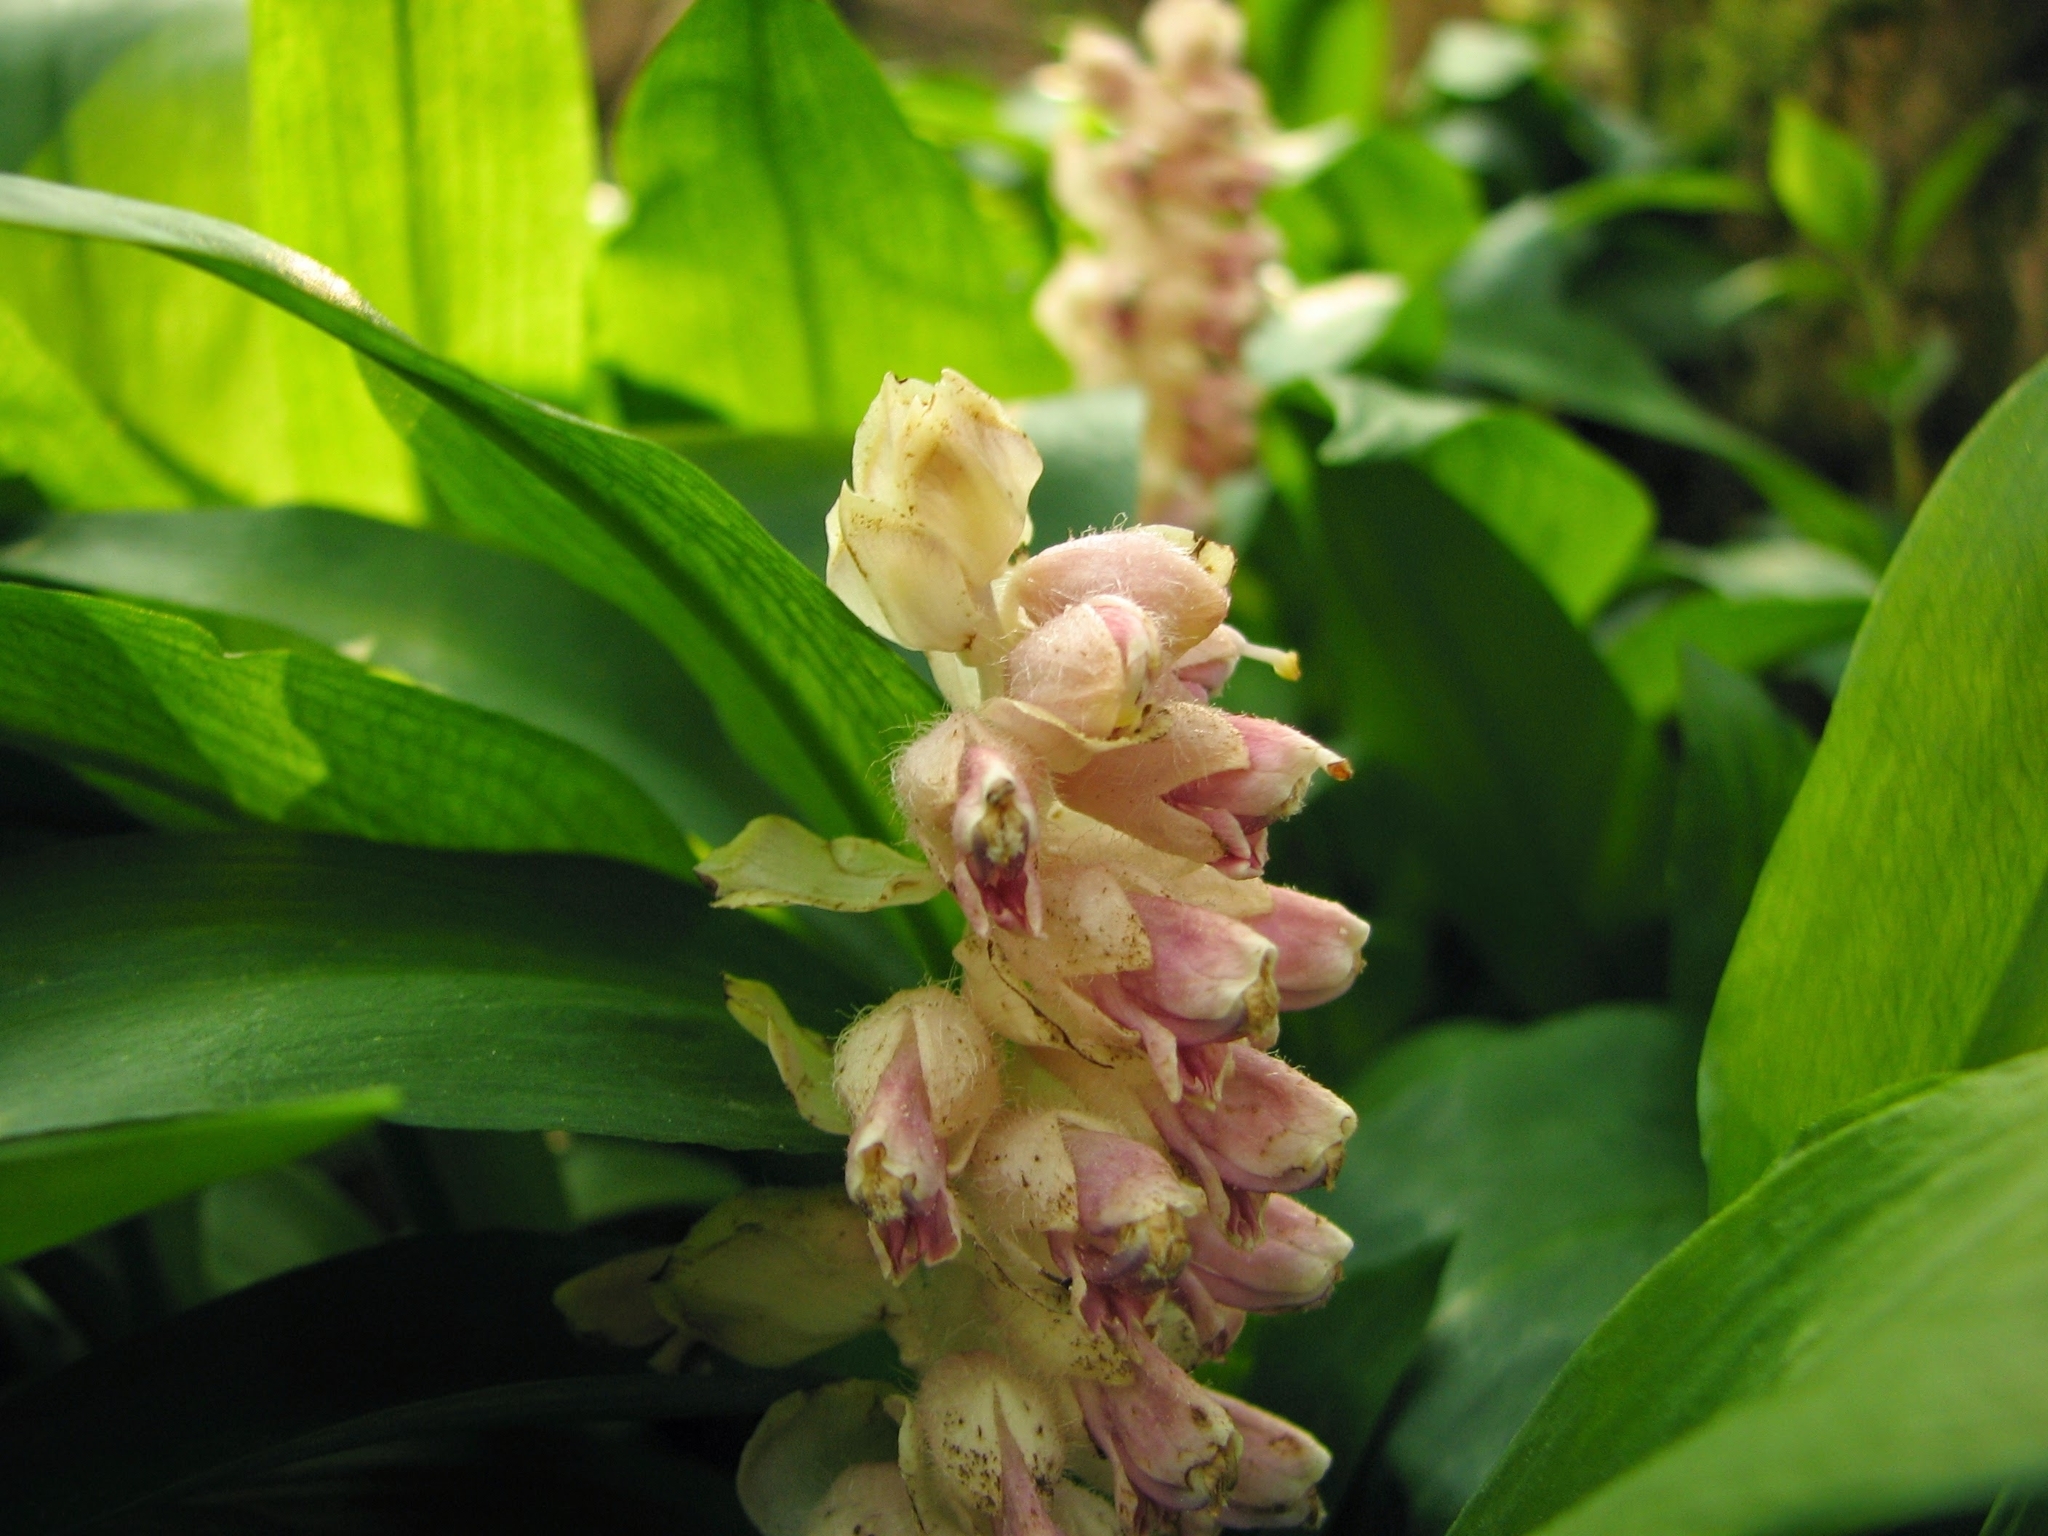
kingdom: Plantae
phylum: Tracheophyta
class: Magnoliopsida
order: Lamiales
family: Orobanchaceae
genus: Lathraea
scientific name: Lathraea squamaria
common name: Toothwort
